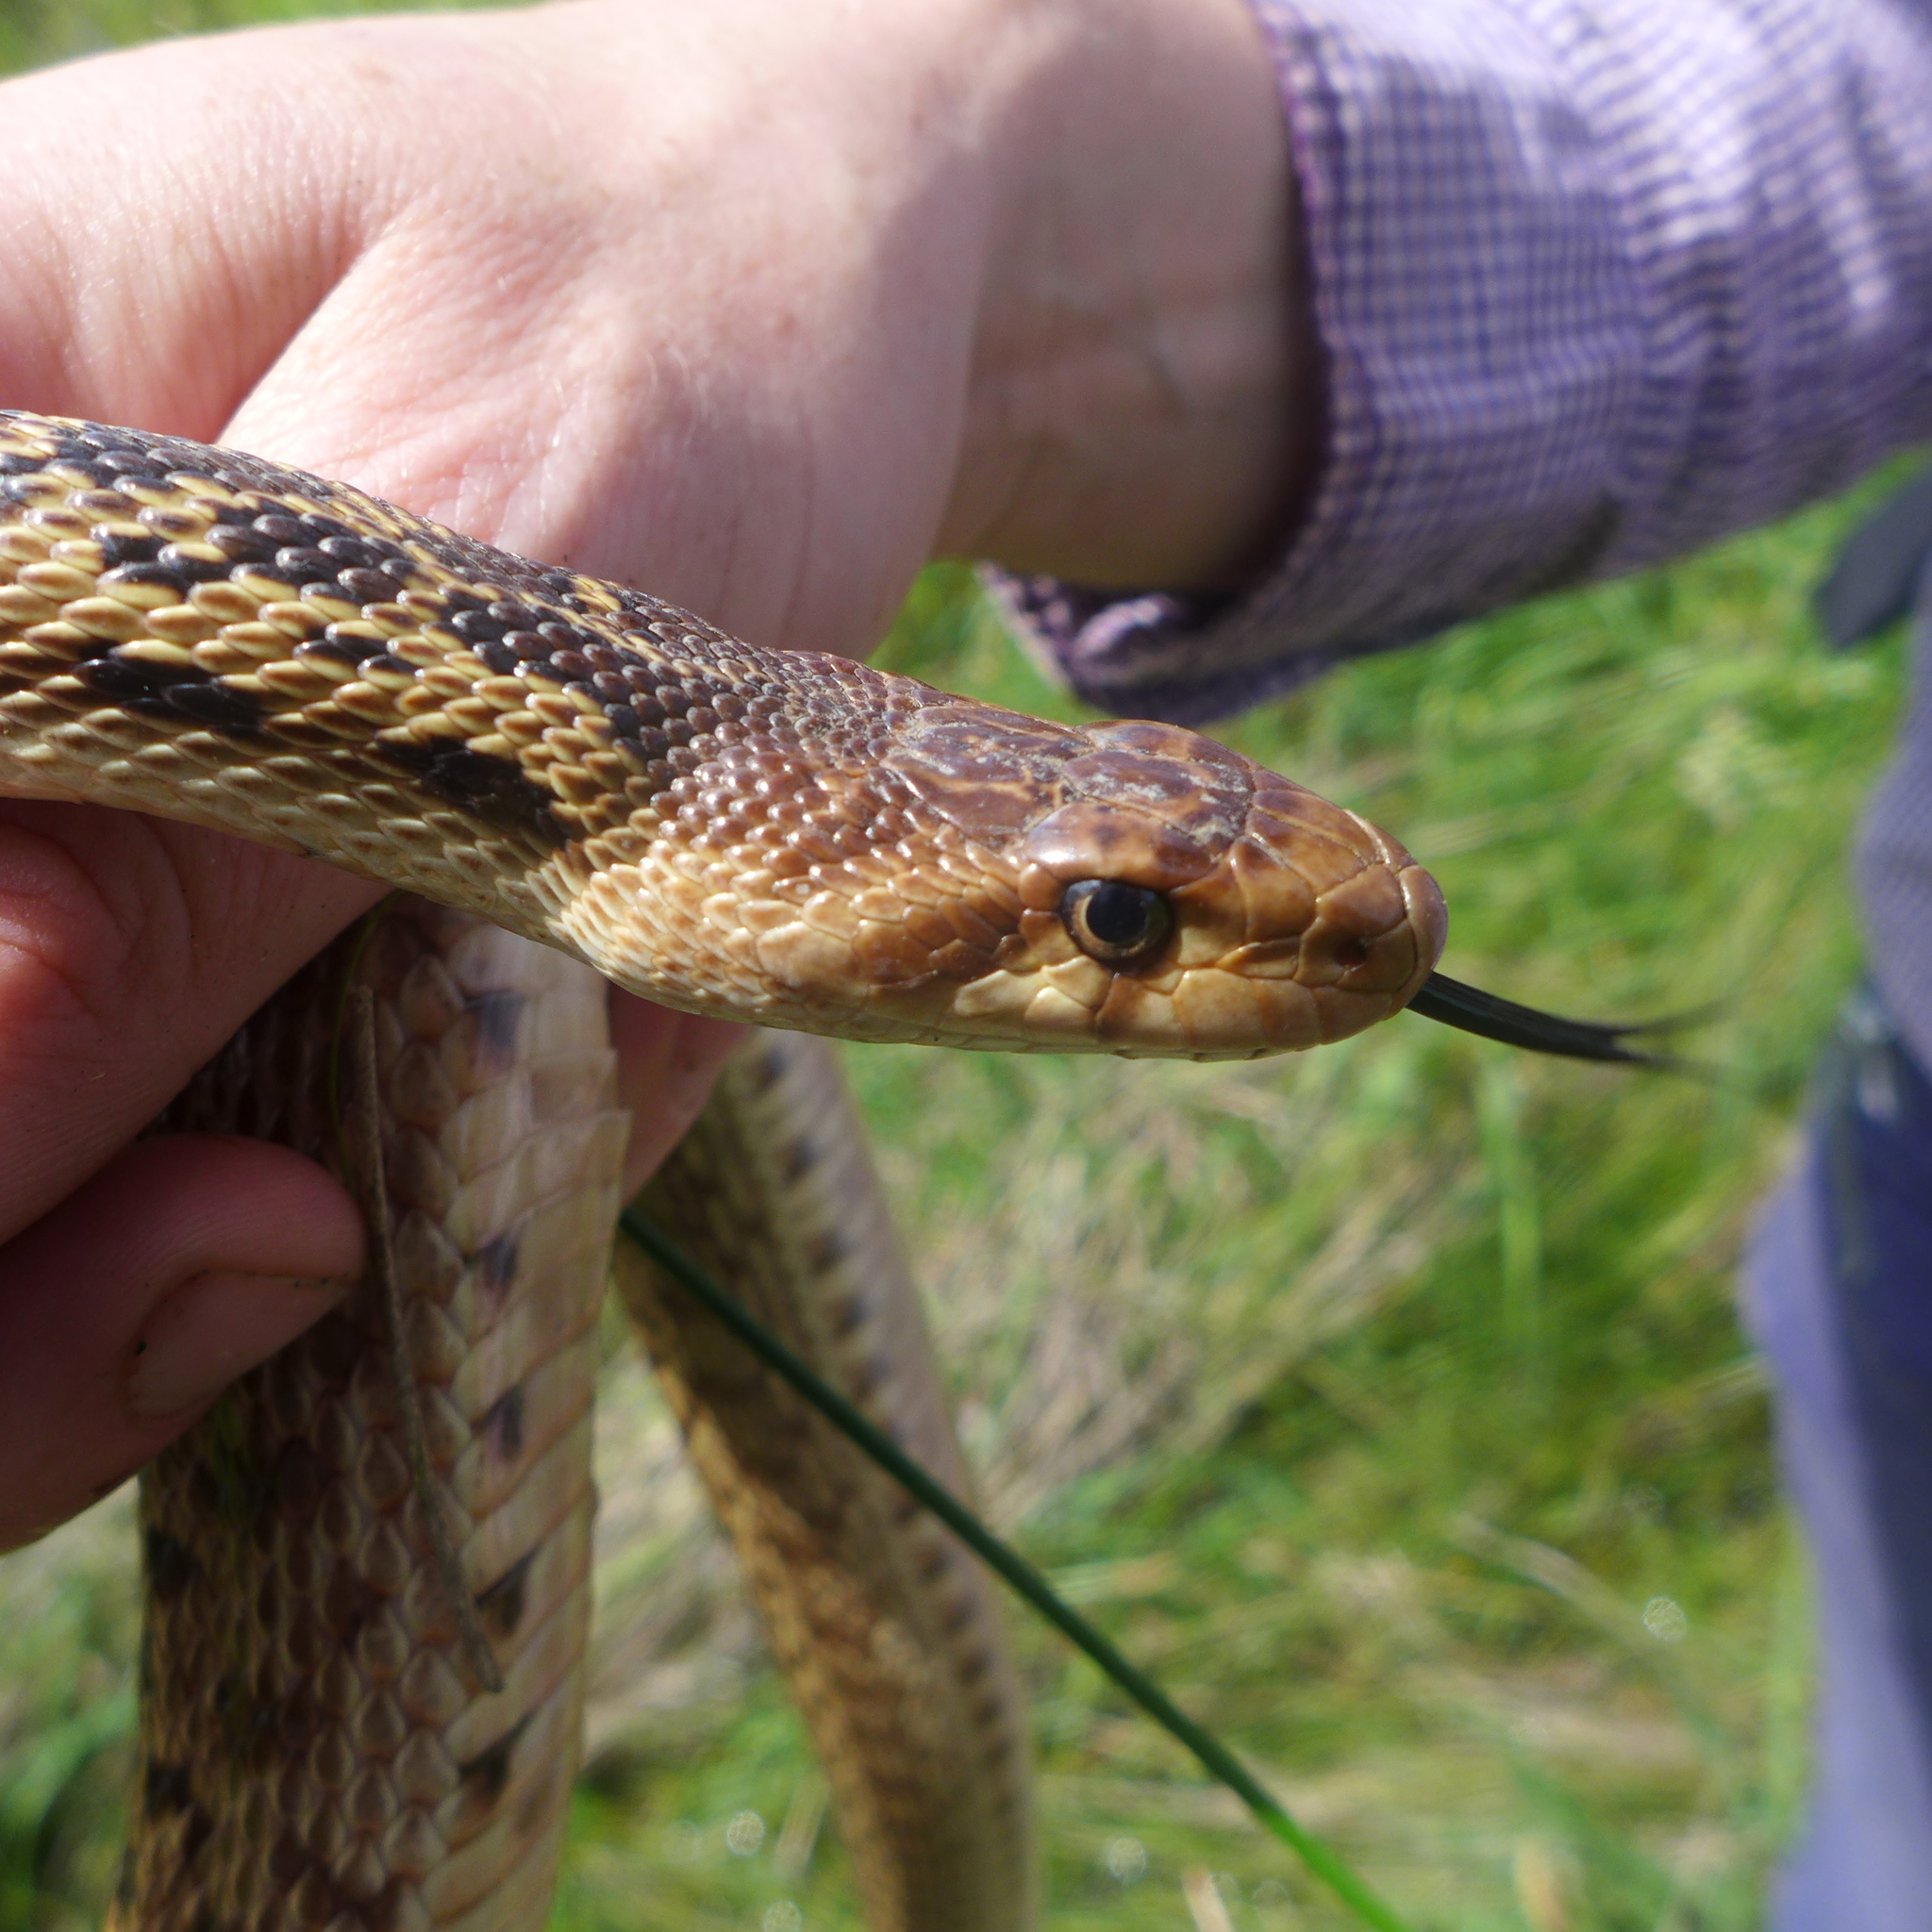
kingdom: Animalia
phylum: Chordata
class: Squamata
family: Colubridae
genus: Pituophis
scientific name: Pituophis catenifer
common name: Gopher snake
